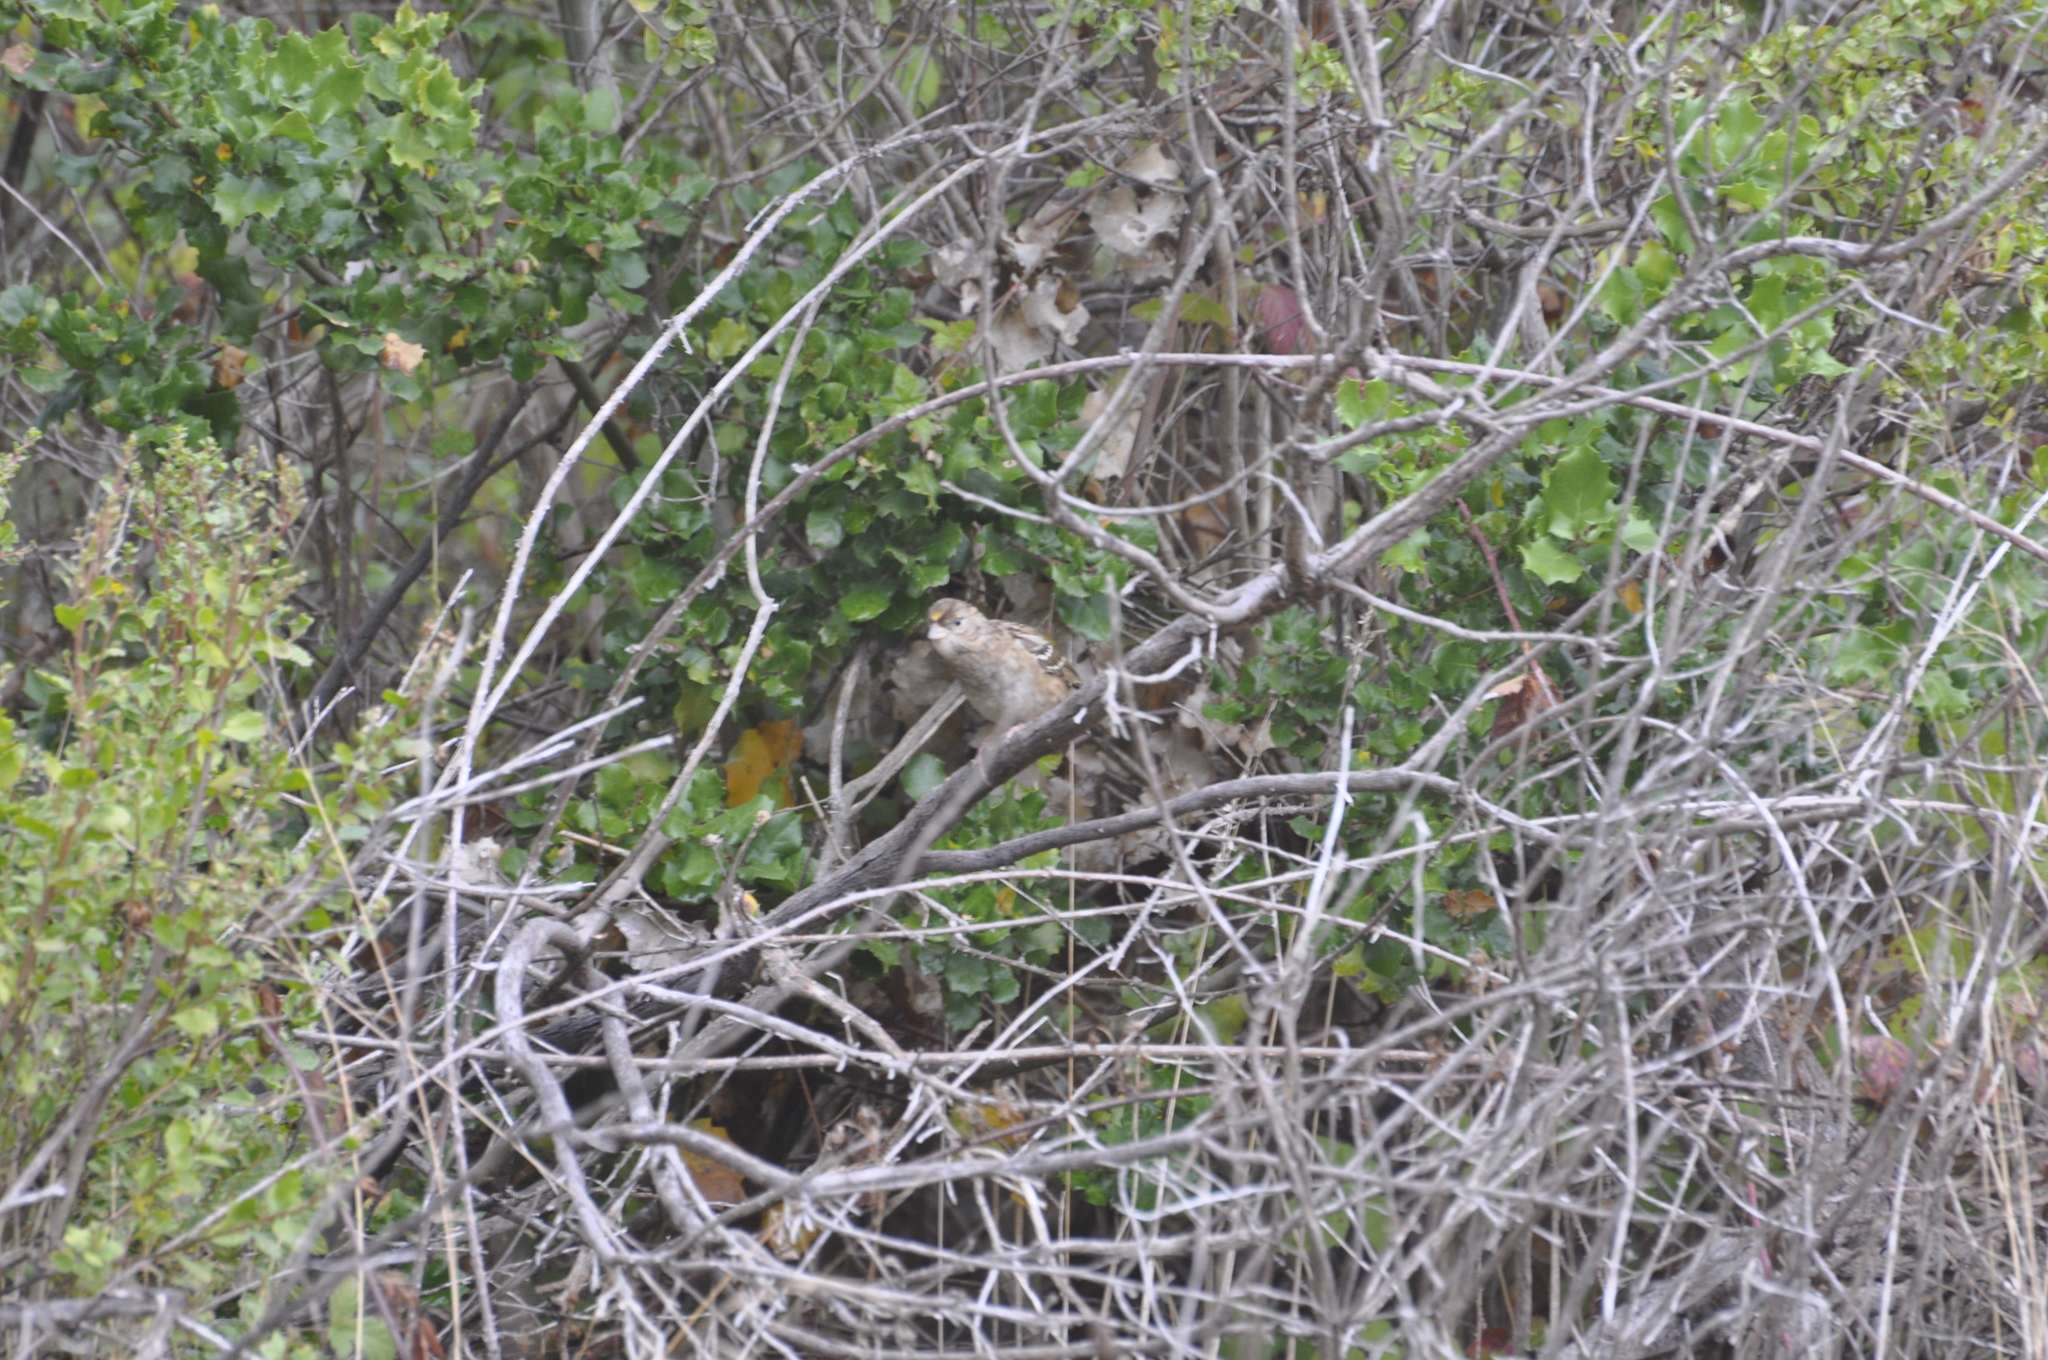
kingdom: Animalia
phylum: Chordata
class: Aves
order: Passeriformes
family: Passerellidae
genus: Zonotrichia
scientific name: Zonotrichia atricapilla
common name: Golden-crowned sparrow
